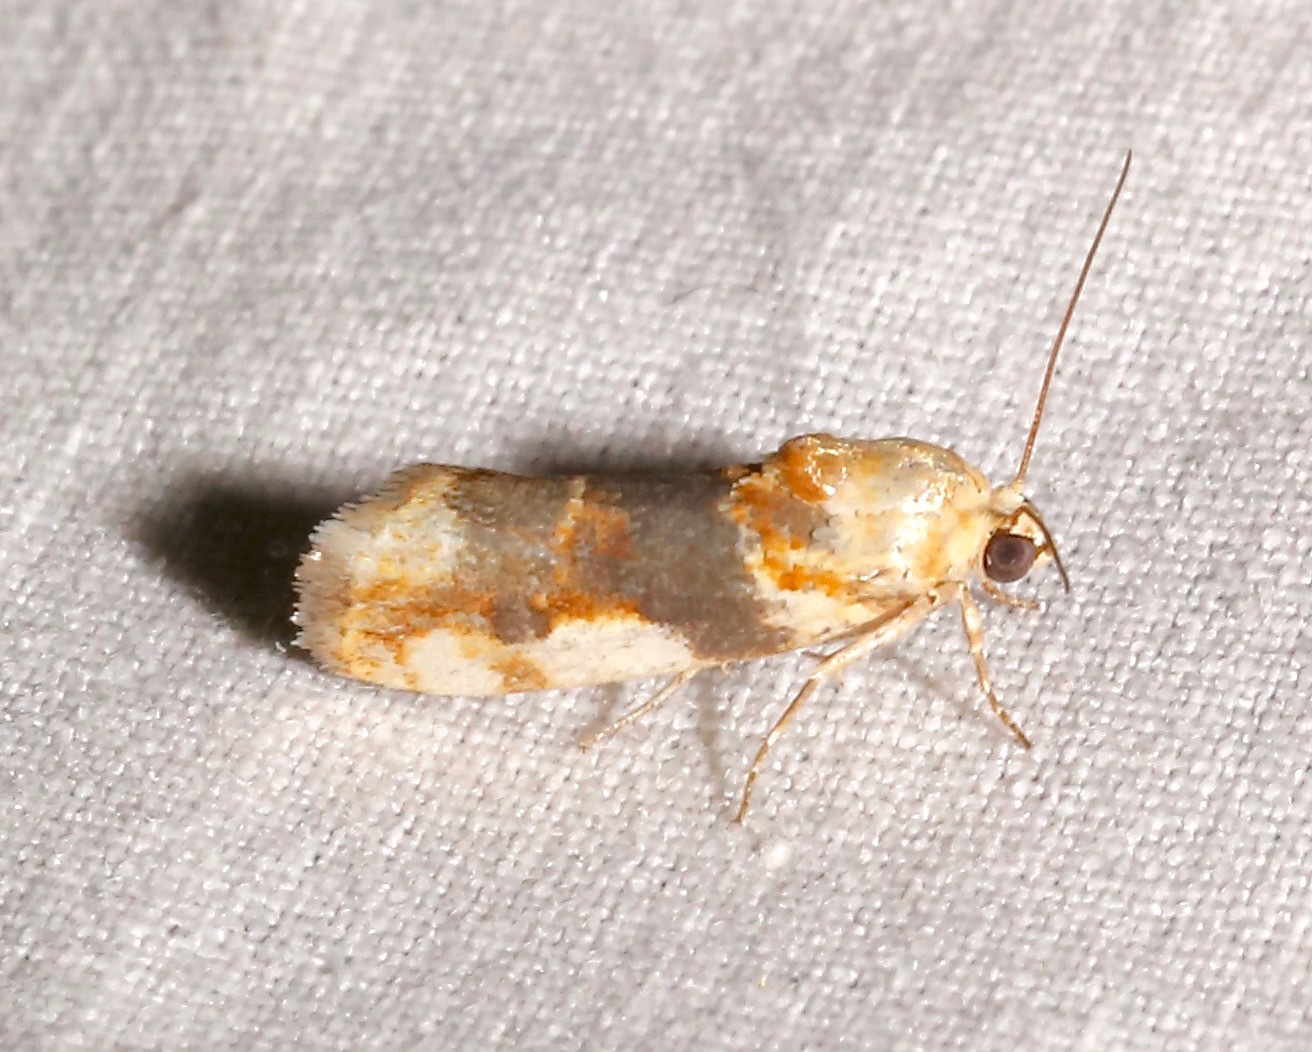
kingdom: Animalia
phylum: Arthropoda
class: Insecta
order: Lepidoptera
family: Noctuidae
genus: Acontia
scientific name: Acontia obatra
